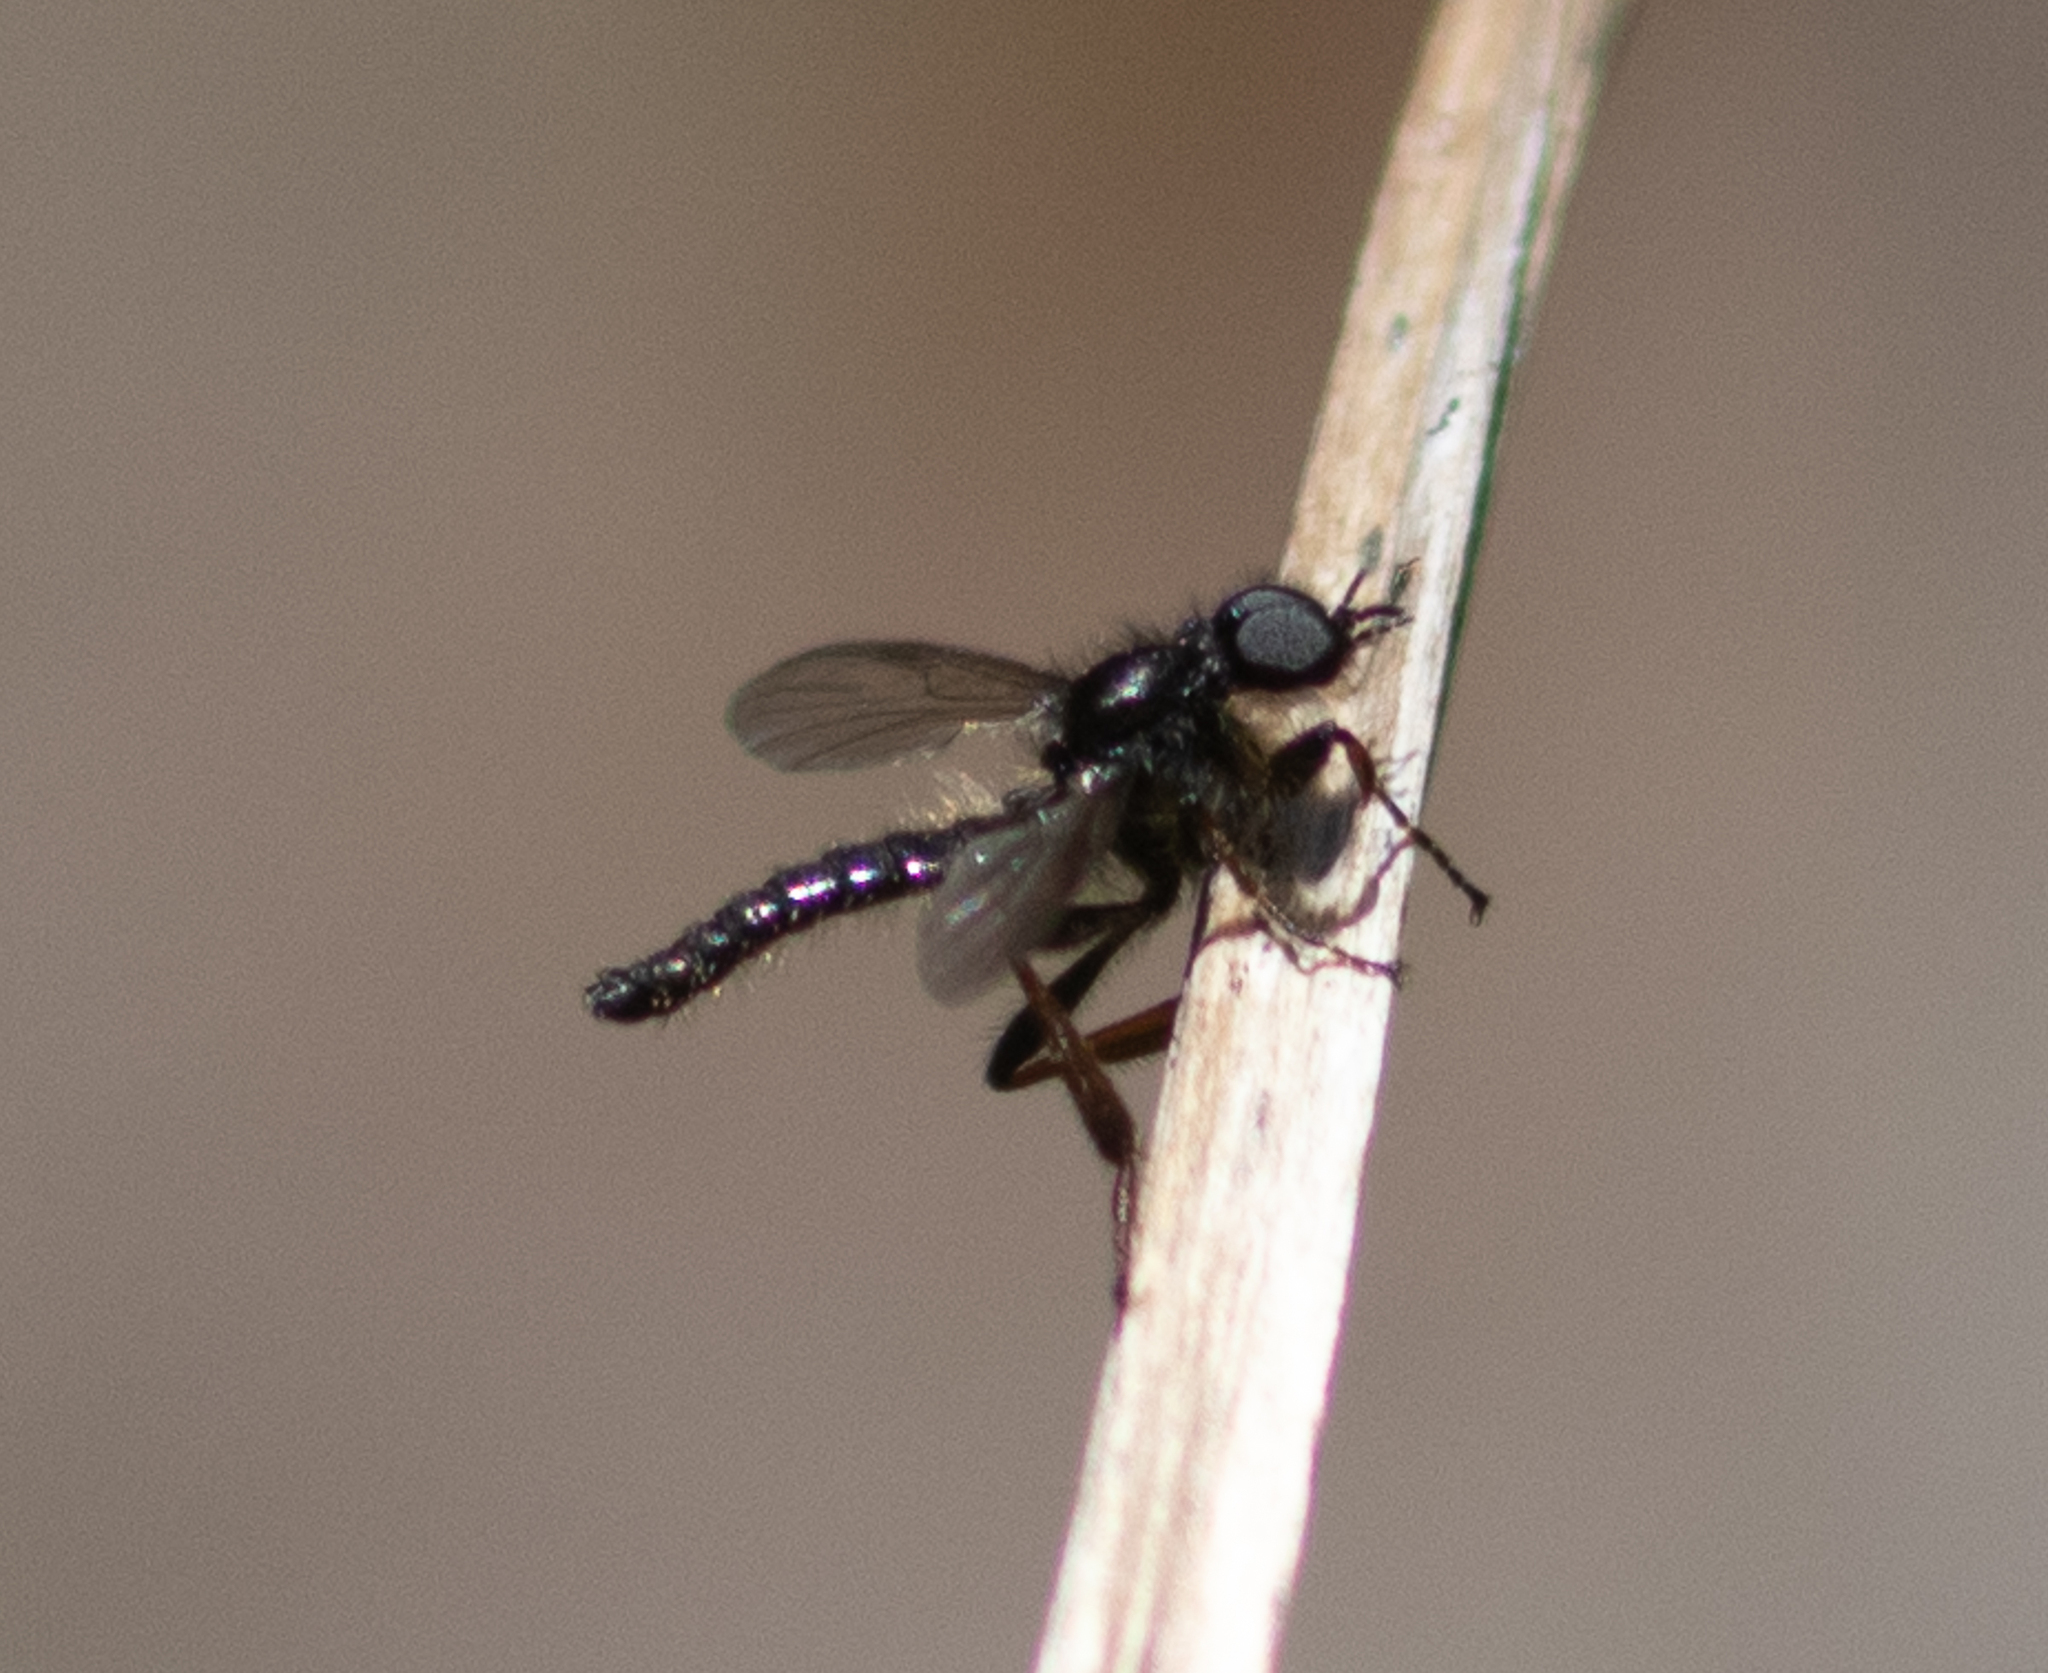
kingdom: Animalia
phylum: Arthropoda
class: Insecta
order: Diptera
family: Bibionidae
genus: Bibio
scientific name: Bibio lanigerus
